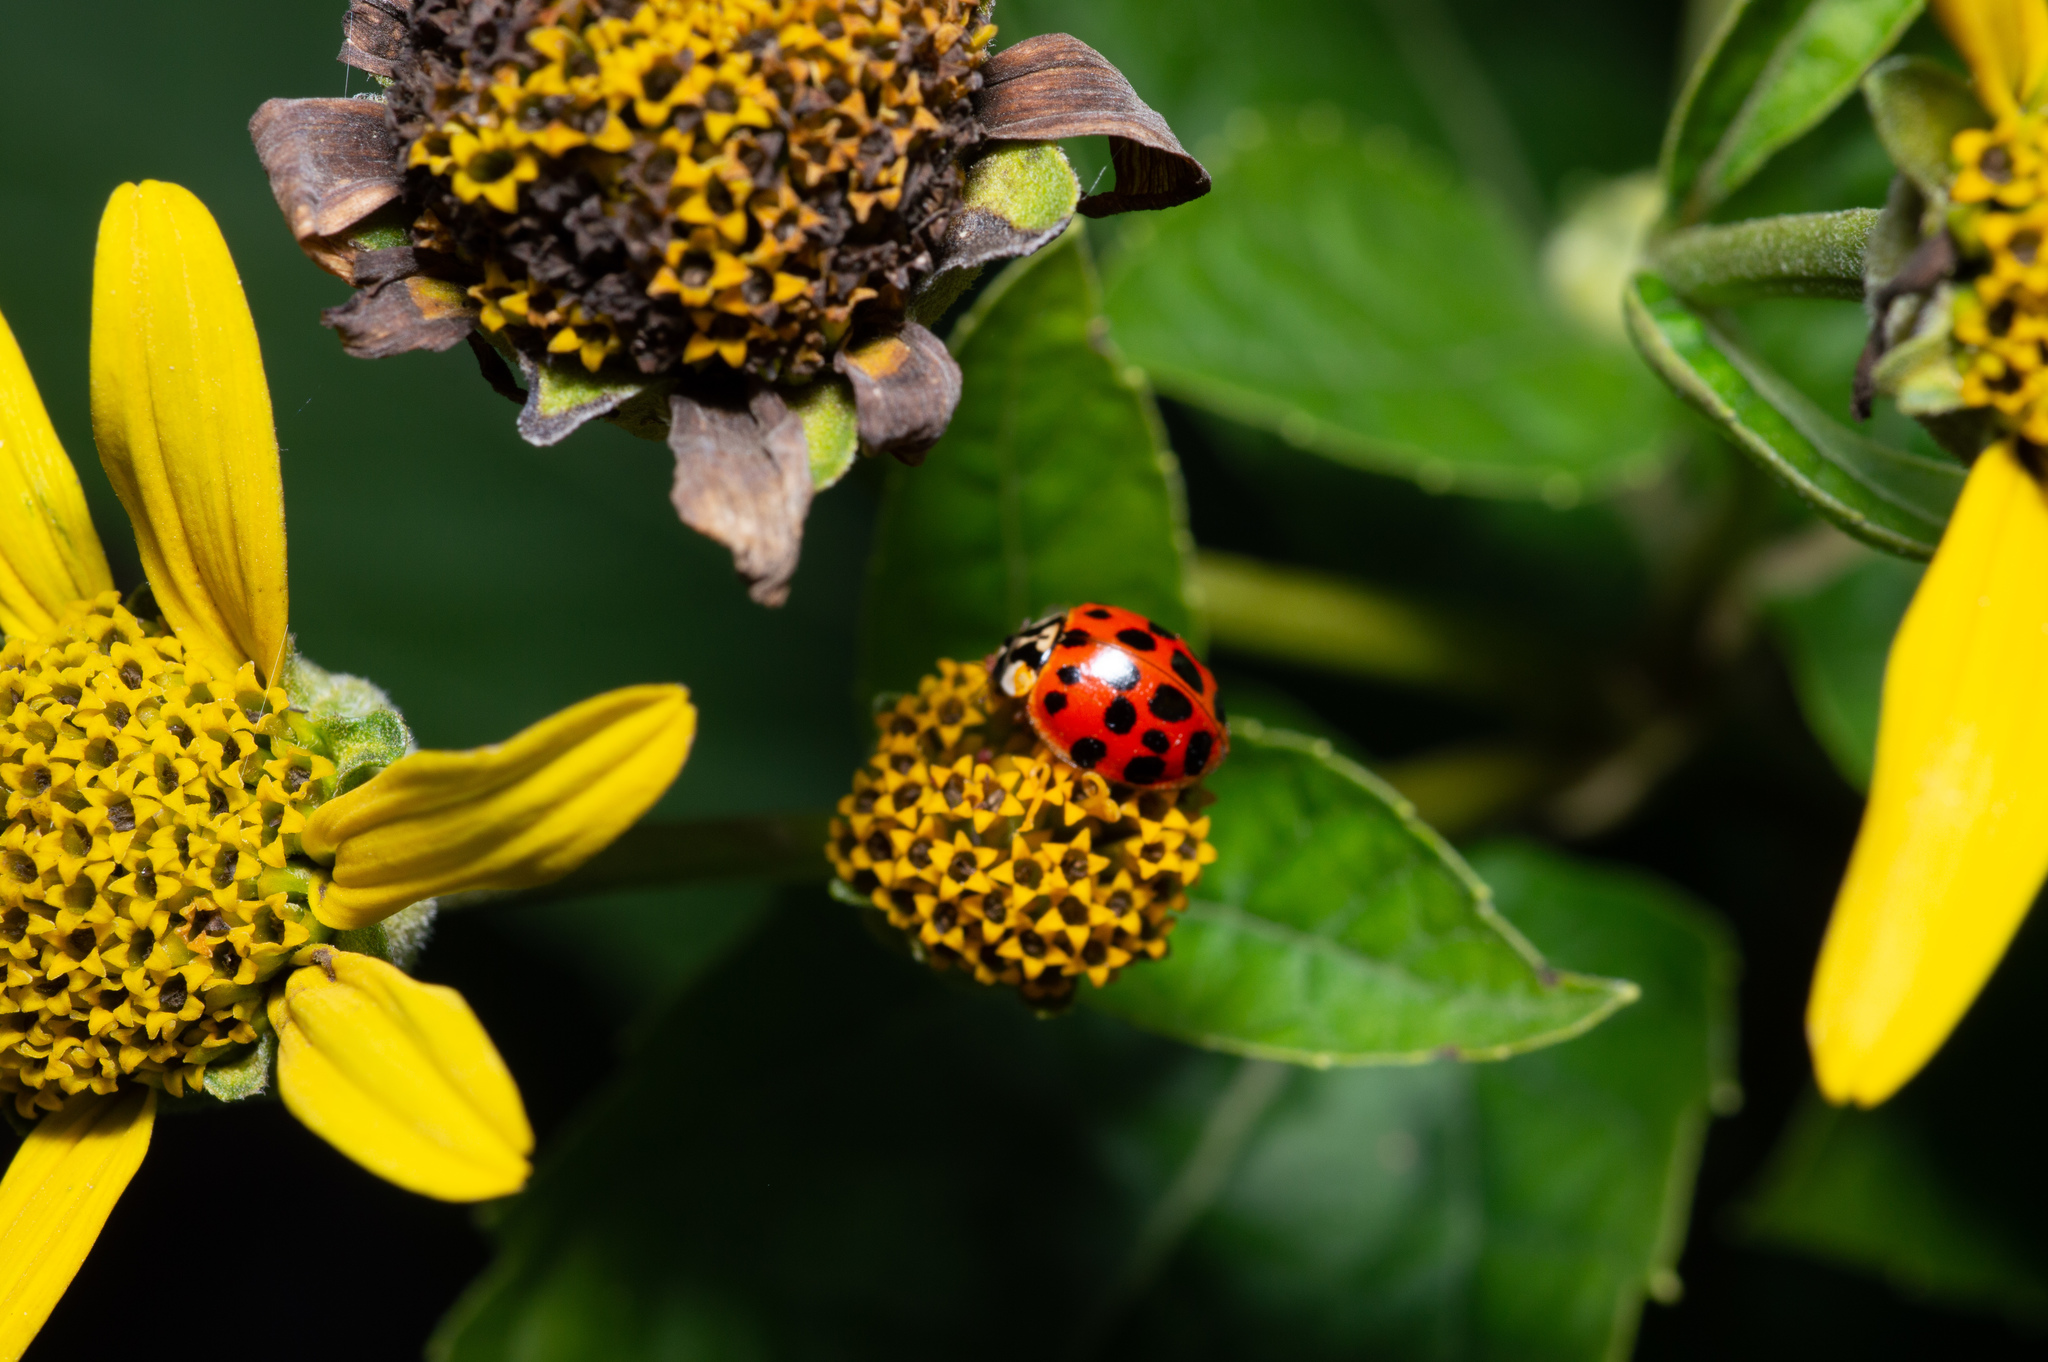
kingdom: Animalia
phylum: Arthropoda
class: Insecta
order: Coleoptera
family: Coccinellidae
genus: Harmonia
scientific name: Harmonia axyridis
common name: Harlequin ladybird
